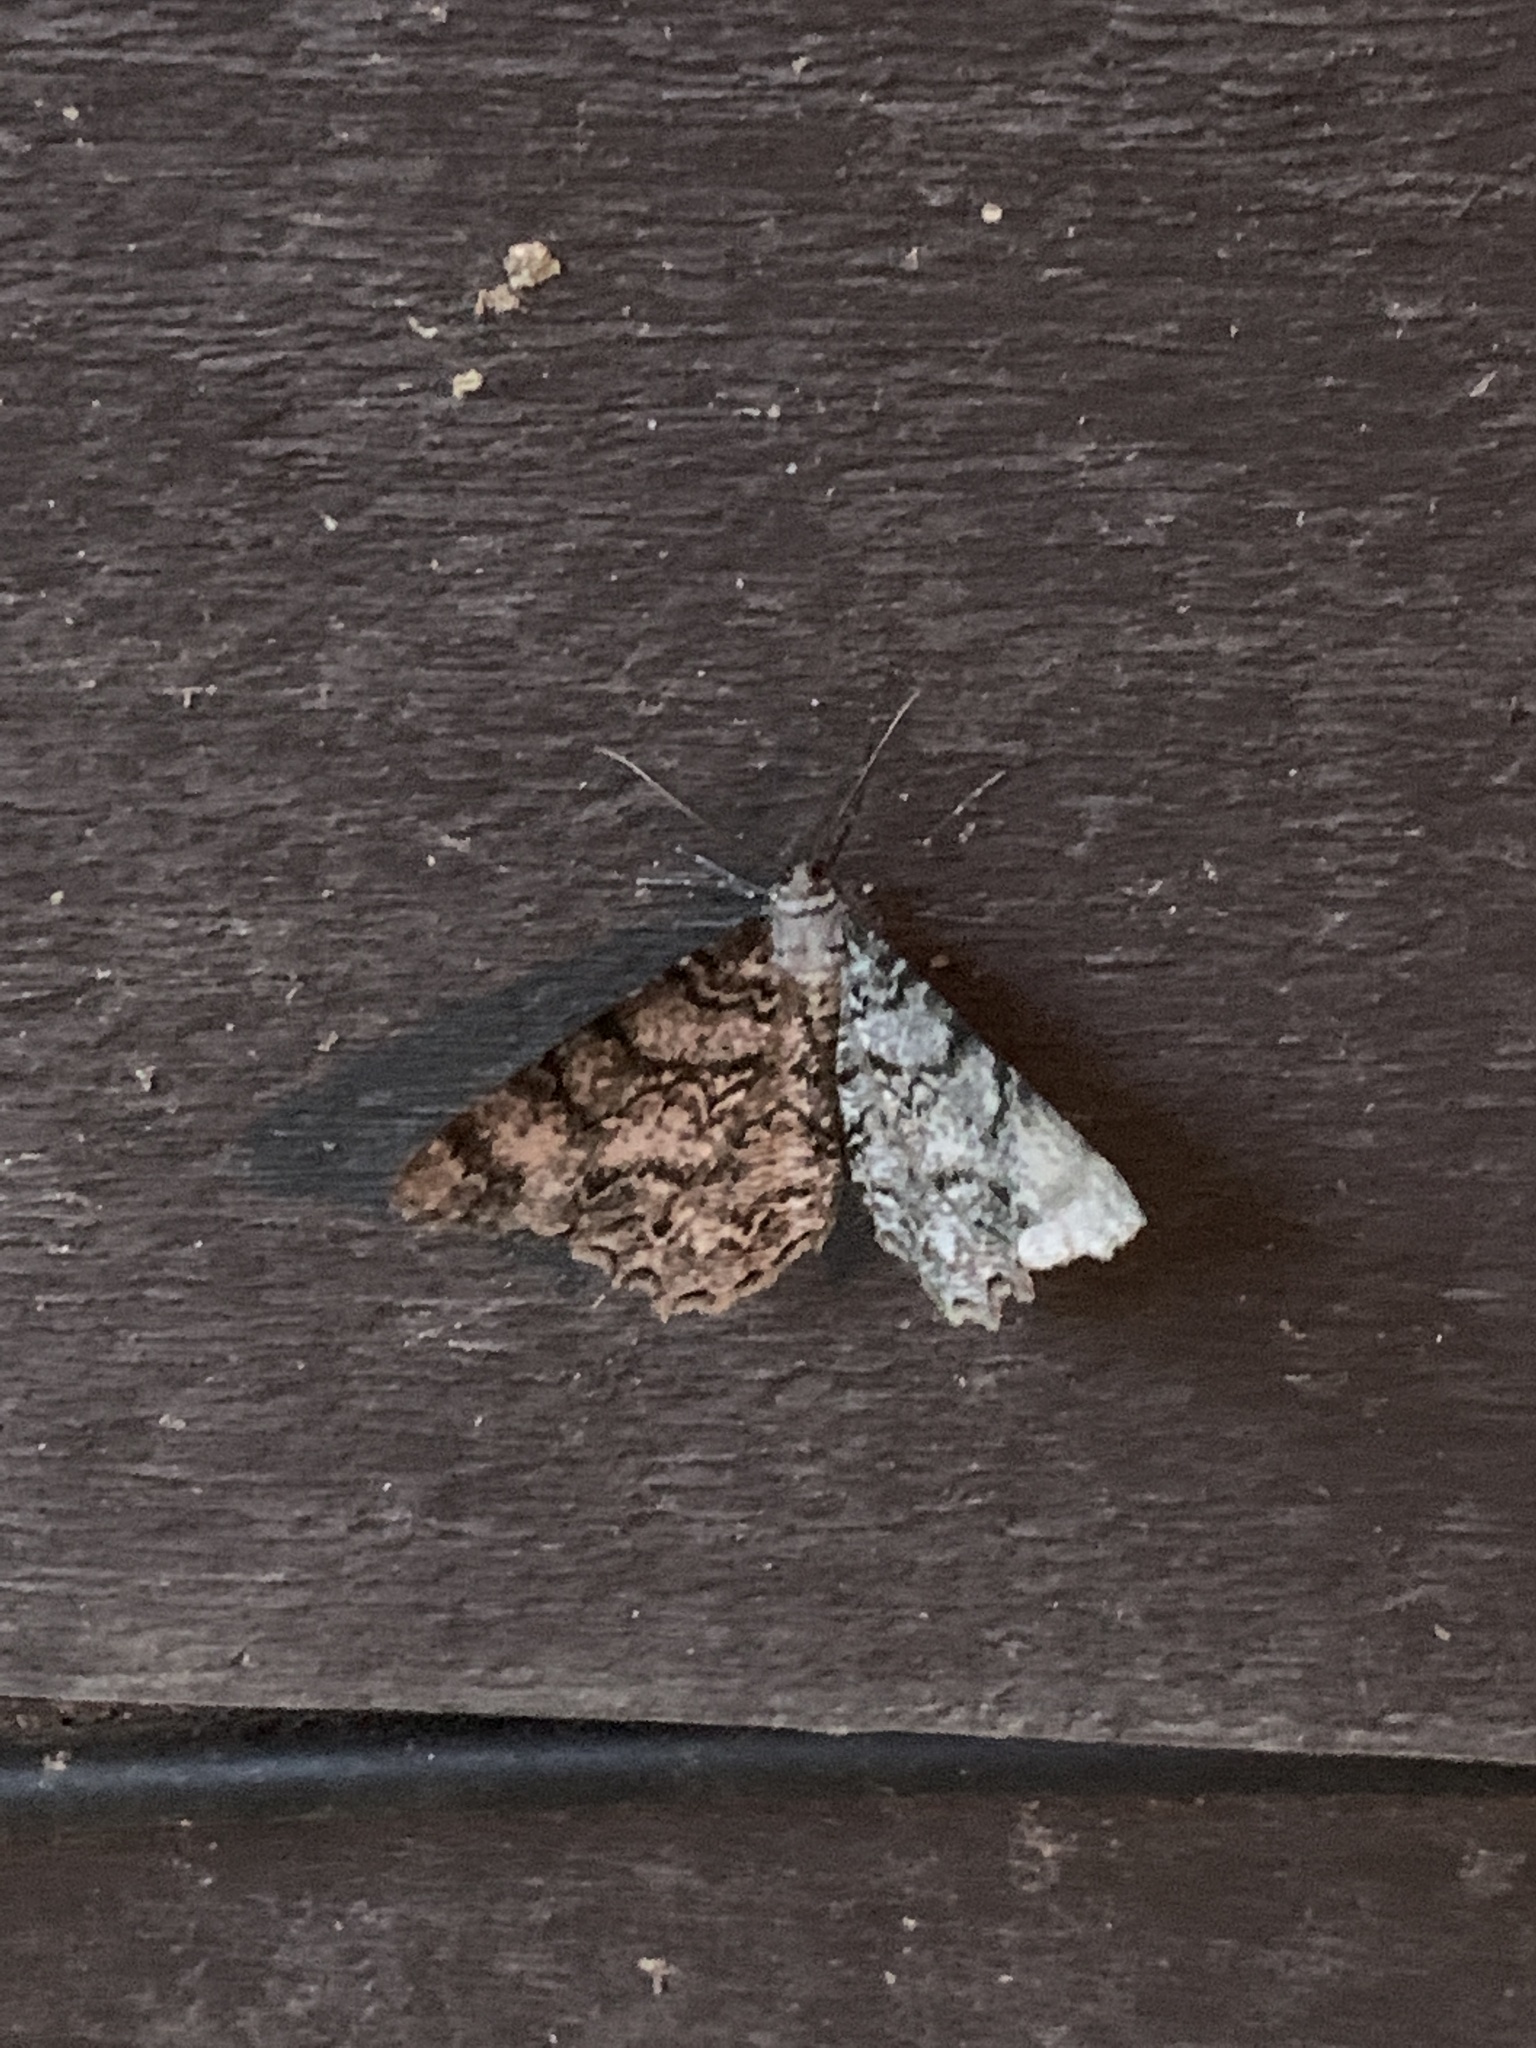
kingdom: Animalia
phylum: Arthropoda
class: Insecta
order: Lepidoptera
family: Geometridae
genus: Epimecis
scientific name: Epimecis hortaria
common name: Tulip-tree beauty
